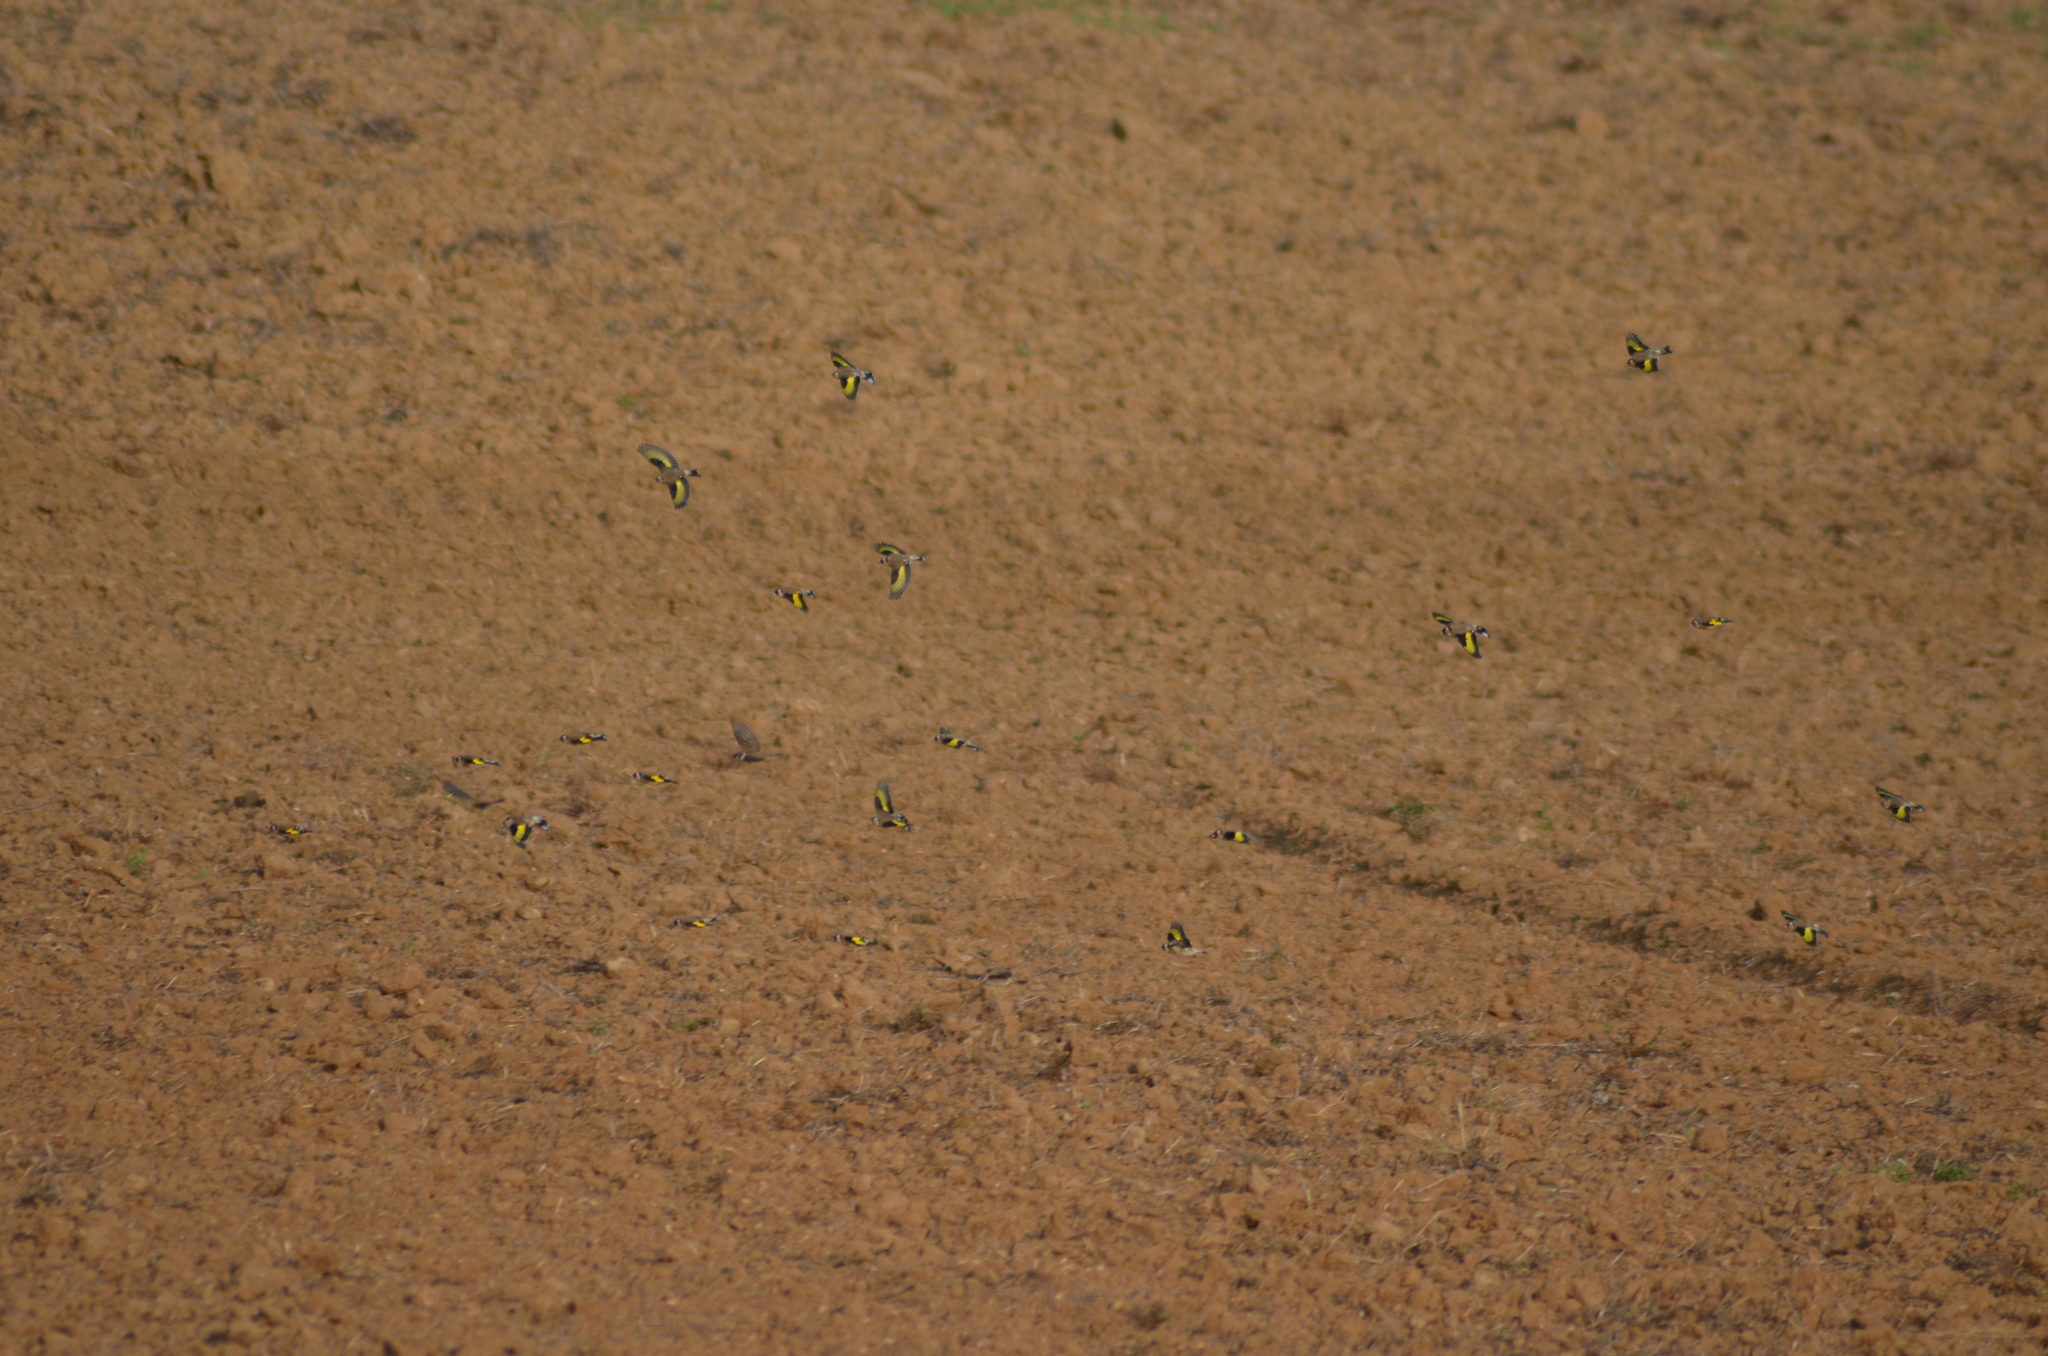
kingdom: Animalia
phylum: Chordata
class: Aves
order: Passeriformes
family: Fringillidae
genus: Carduelis
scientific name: Carduelis carduelis
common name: European goldfinch
